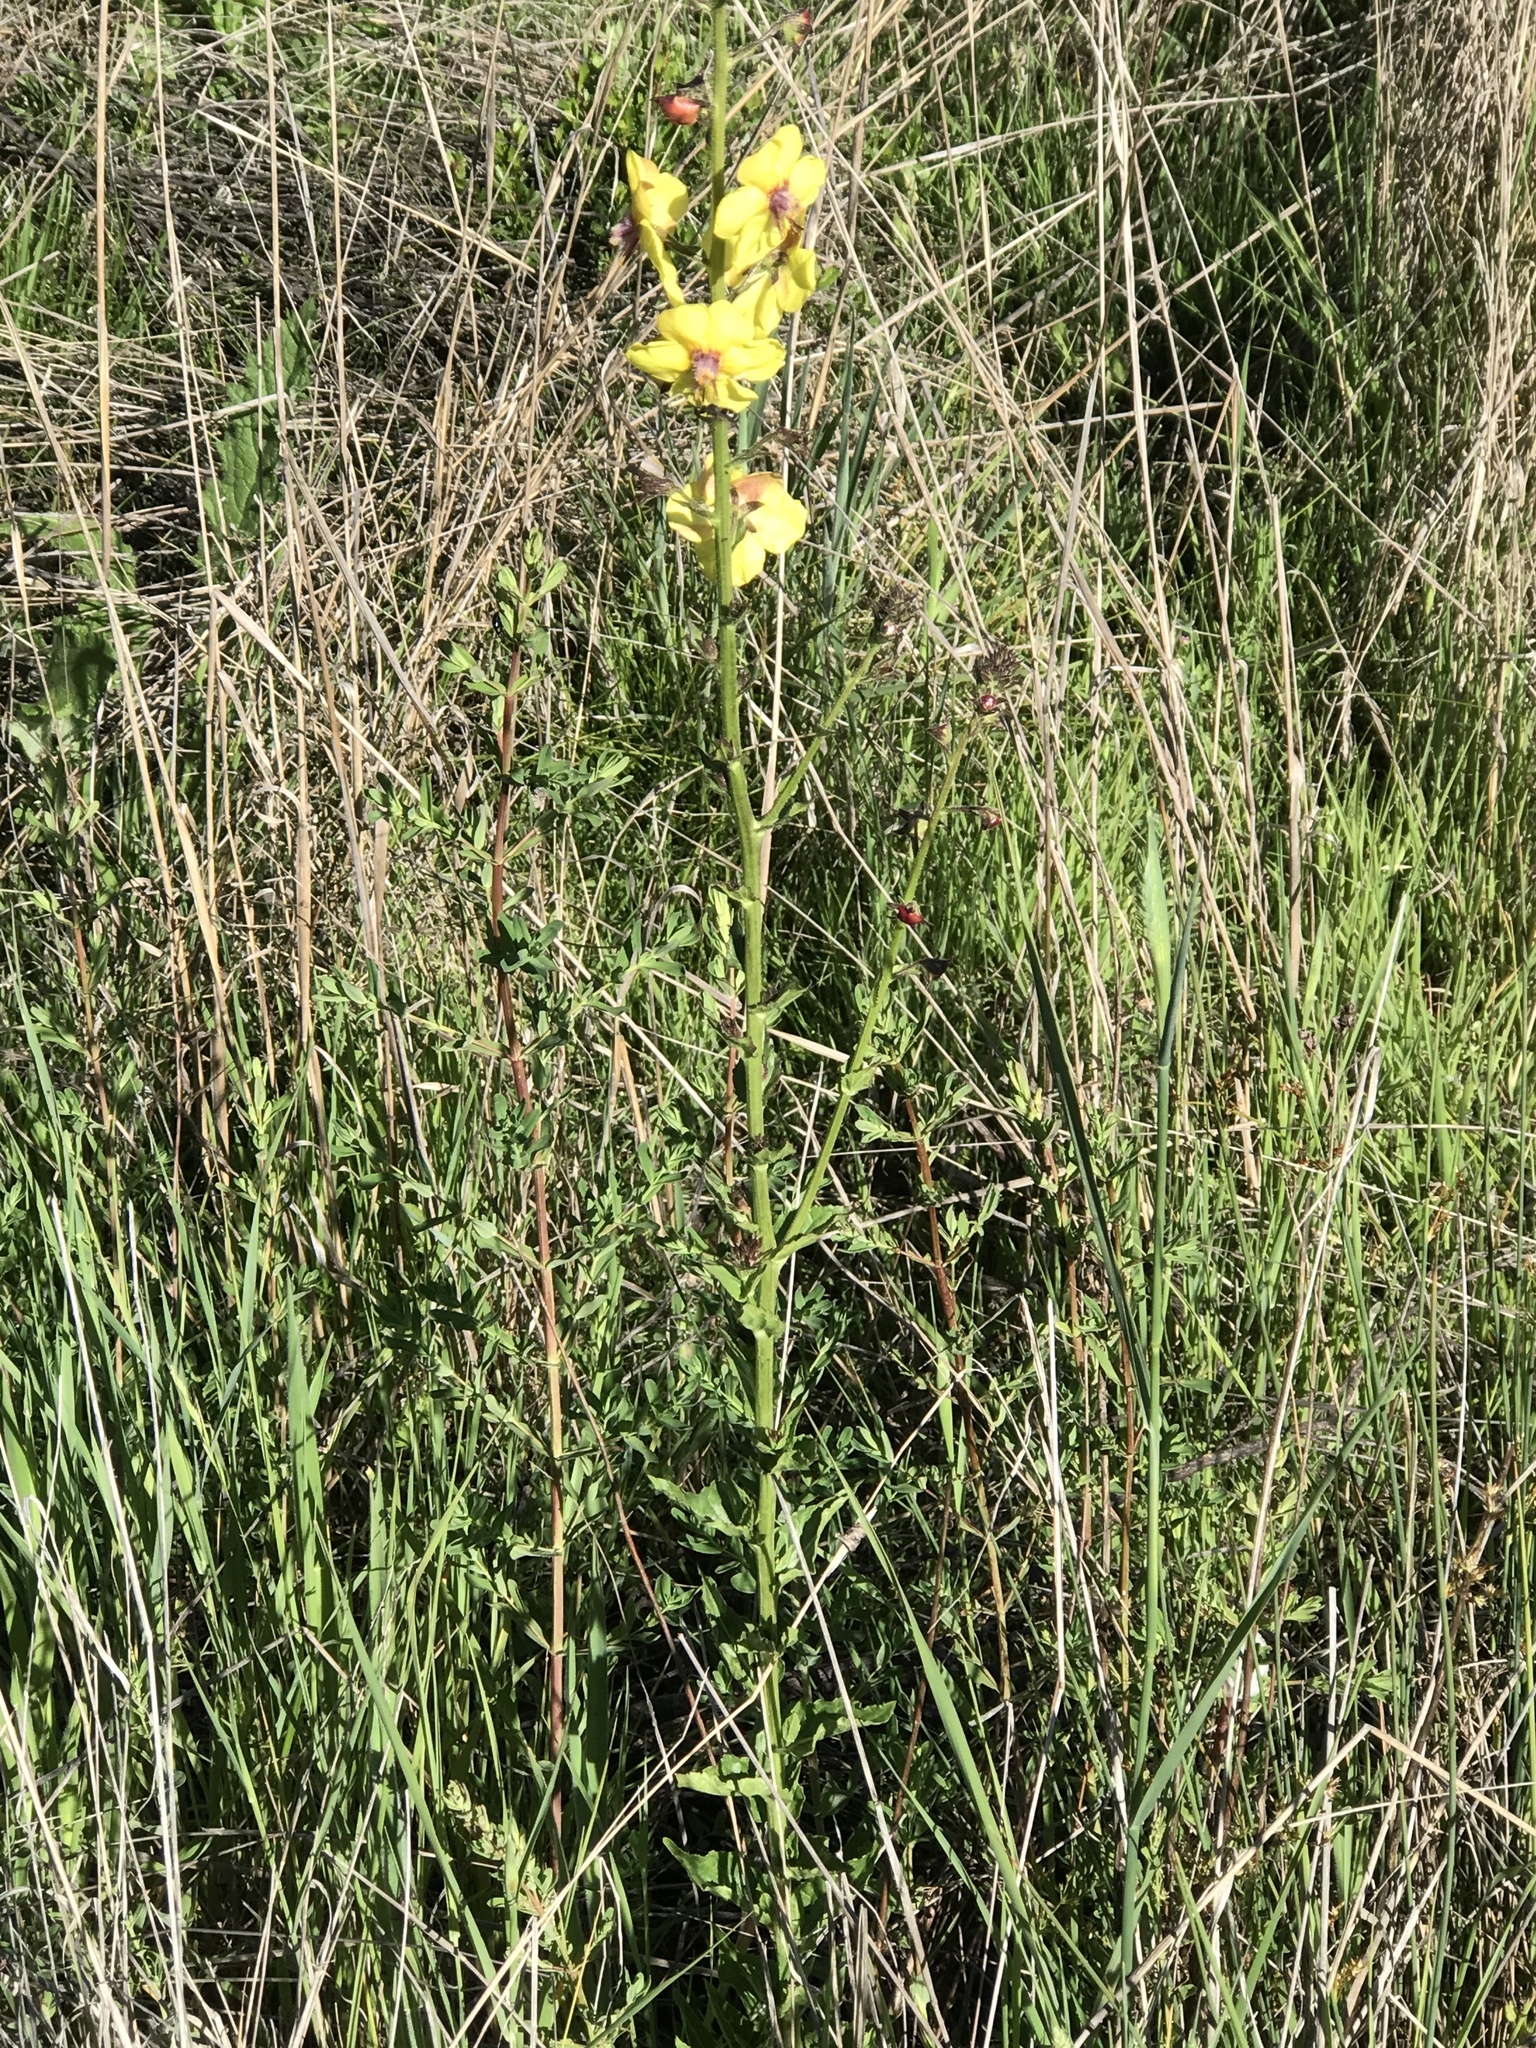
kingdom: Plantae
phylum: Tracheophyta
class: Magnoliopsida
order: Lamiales
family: Scrophulariaceae
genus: Verbascum
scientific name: Verbascum blattaria
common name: Moth mullein
